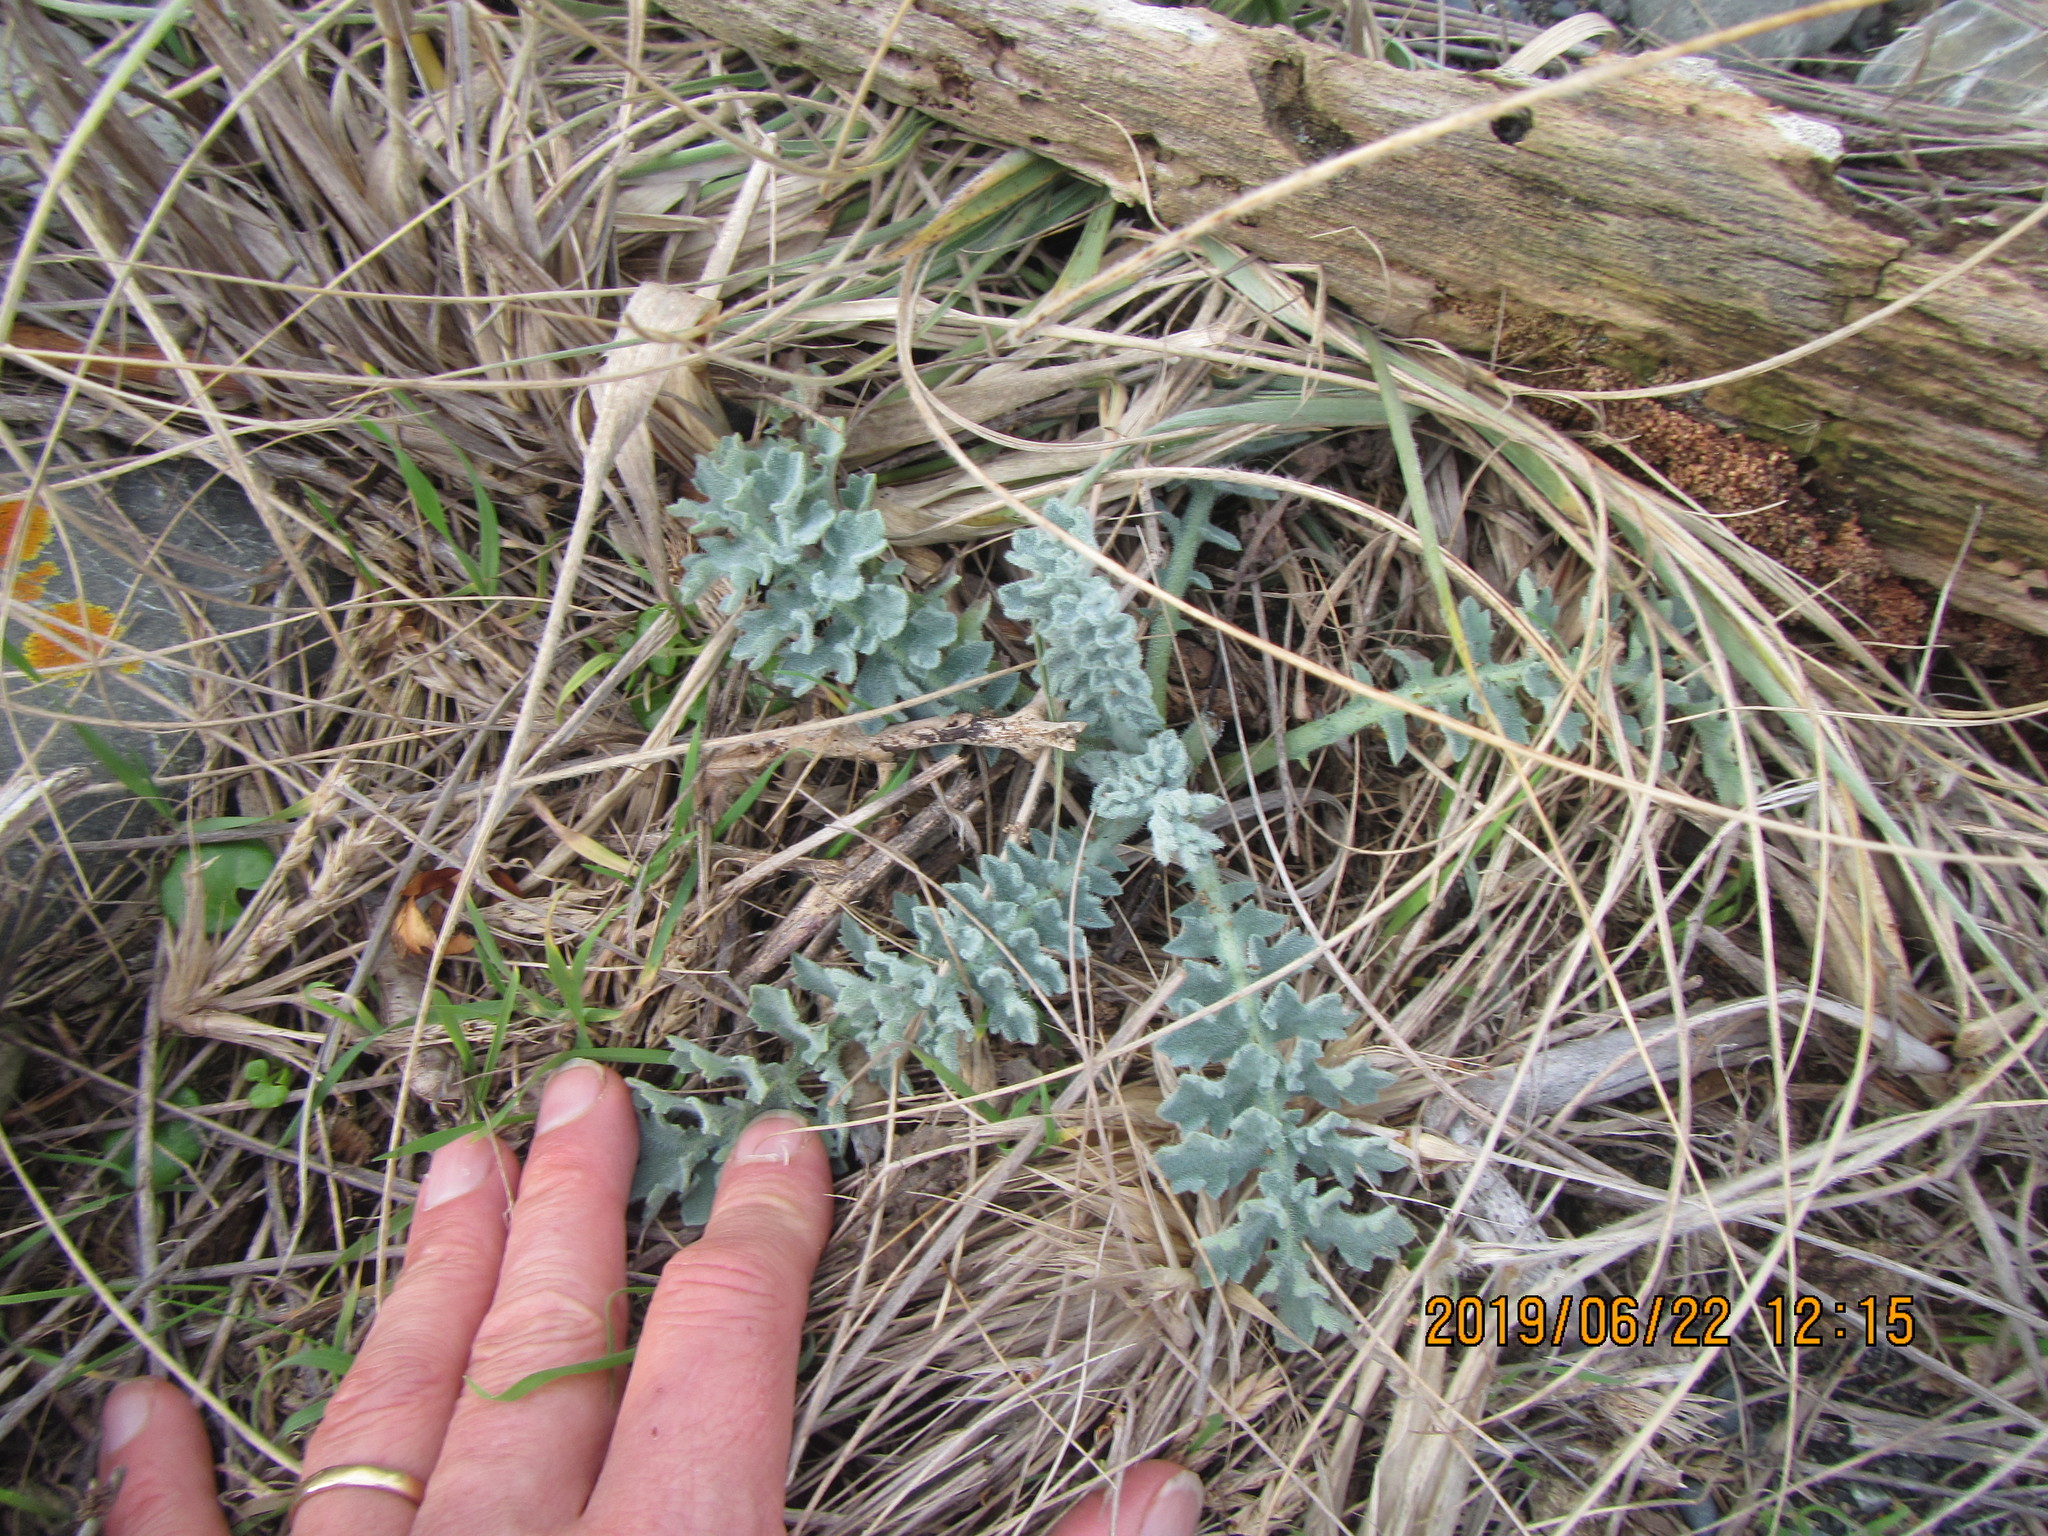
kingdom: Plantae
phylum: Tracheophyta
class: Magnoliopsida
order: Ranunculales
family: Papaveraceae
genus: Glaucium
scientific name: Glaucium flavum
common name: Yellow horned-poppy
